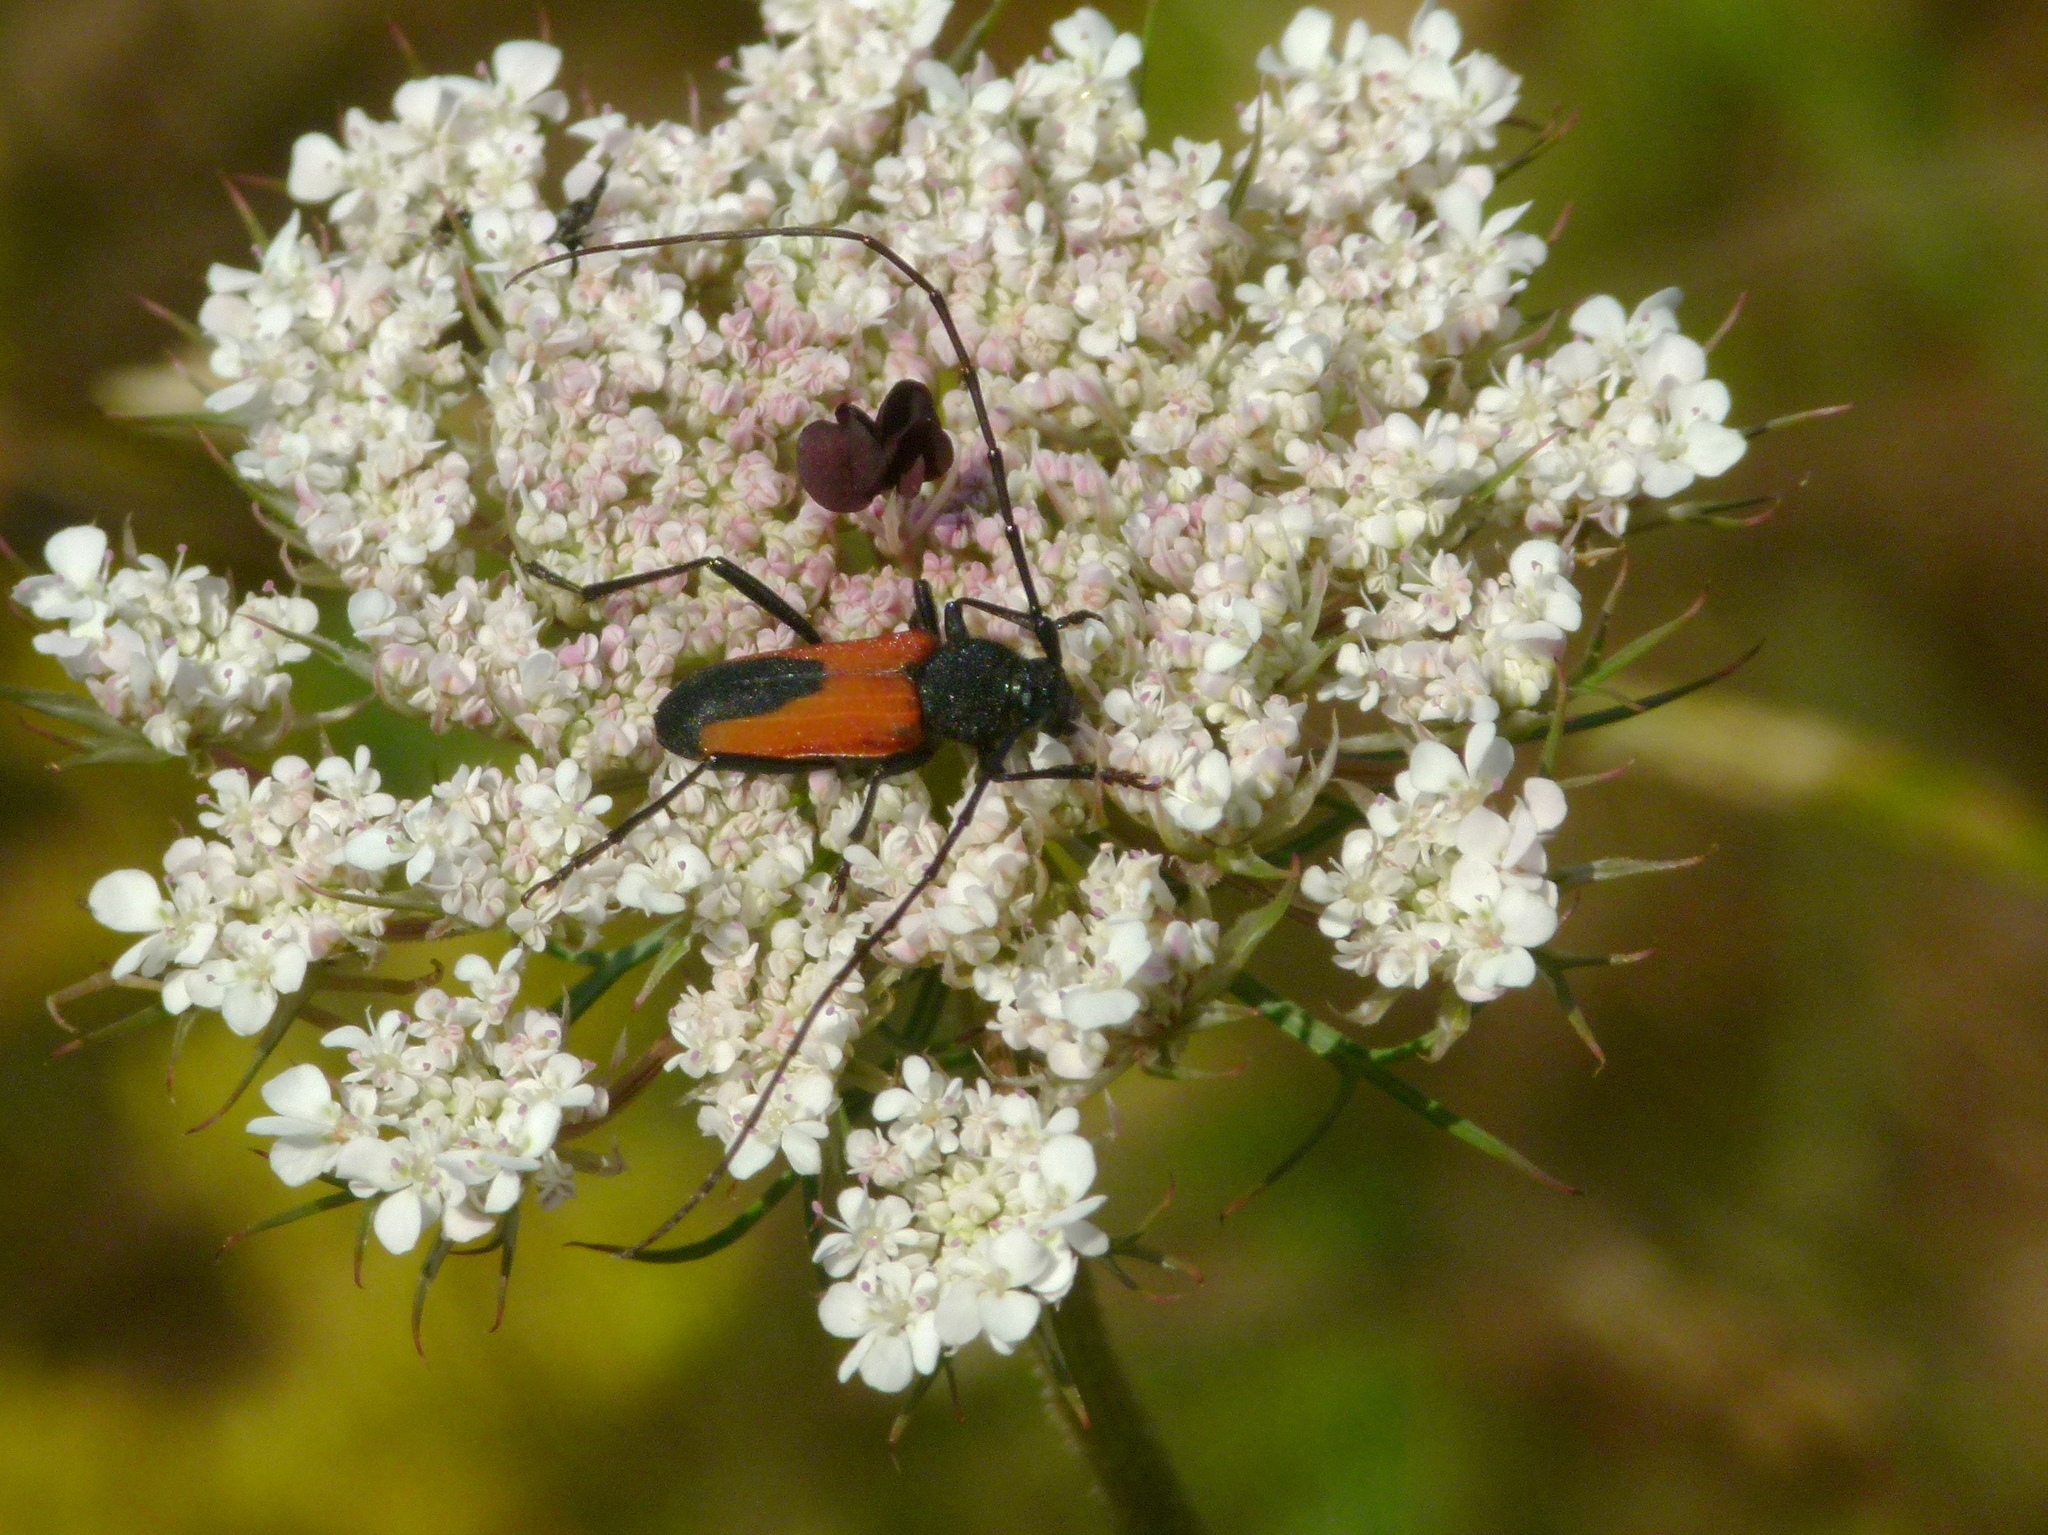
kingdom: Animalia
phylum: Arthropoda
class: Insecta
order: Coleoptera
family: Cerambycidae
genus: Purpuricenus
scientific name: Purpuricenus budensis
